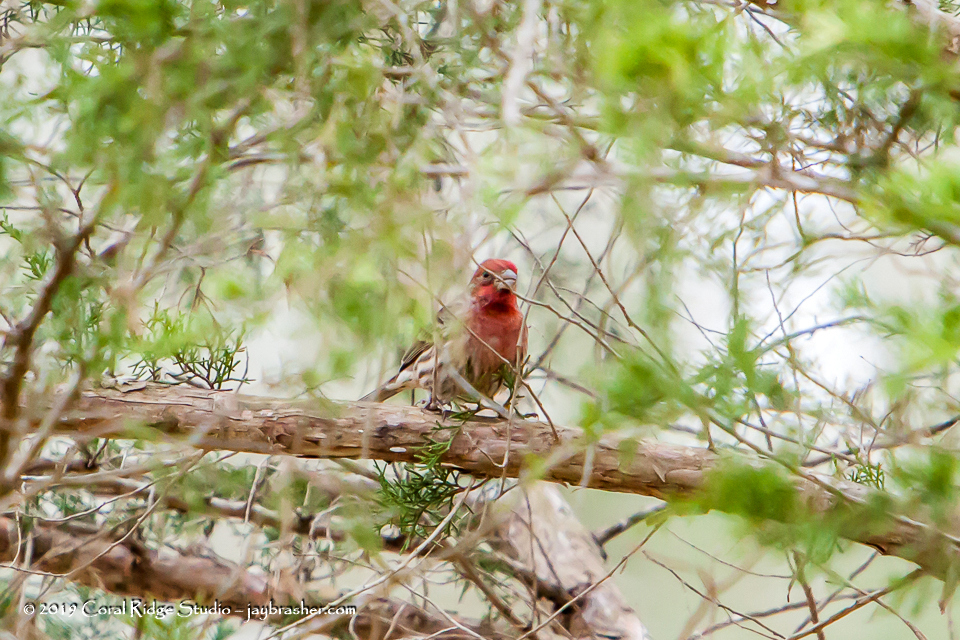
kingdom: Animalia
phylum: Chordata
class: Aves
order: Passeriformes
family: Fringillidae
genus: Haemorhous
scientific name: Haemorhous mexicanus
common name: House finch
